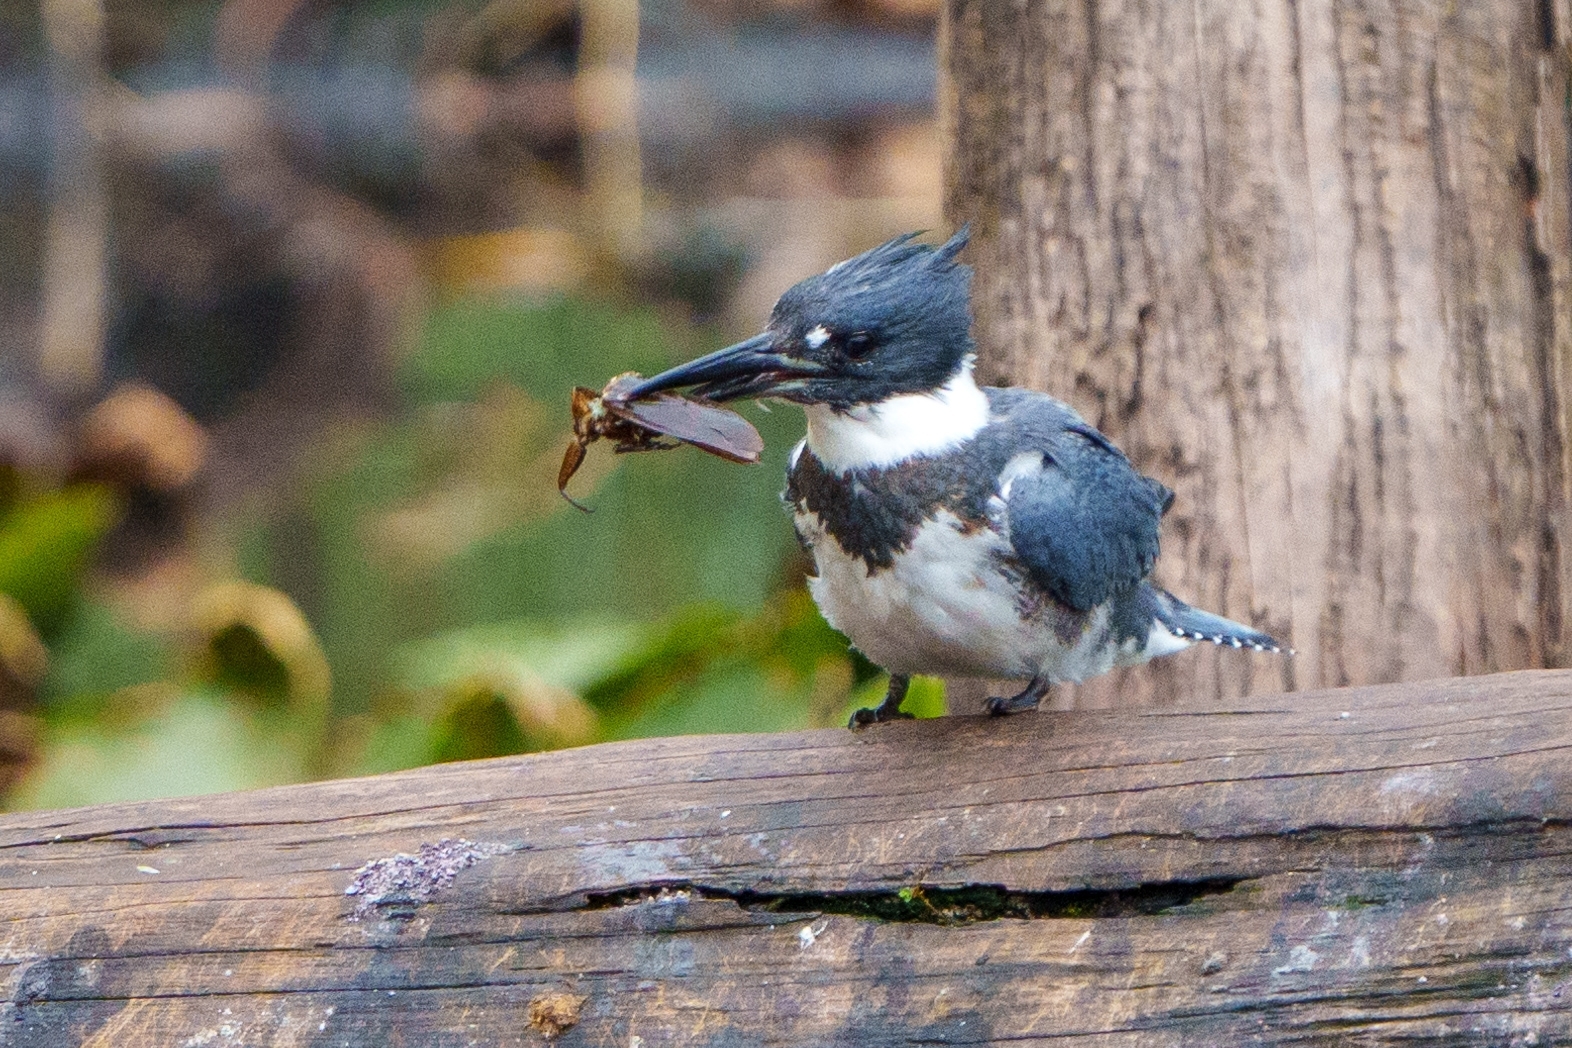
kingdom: Animalia
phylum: Chordata
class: Aves
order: Coraciiformes
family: Alcedinidae
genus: Megaceryle
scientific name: Megaceryle alcyon
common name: Belted kingfisher
